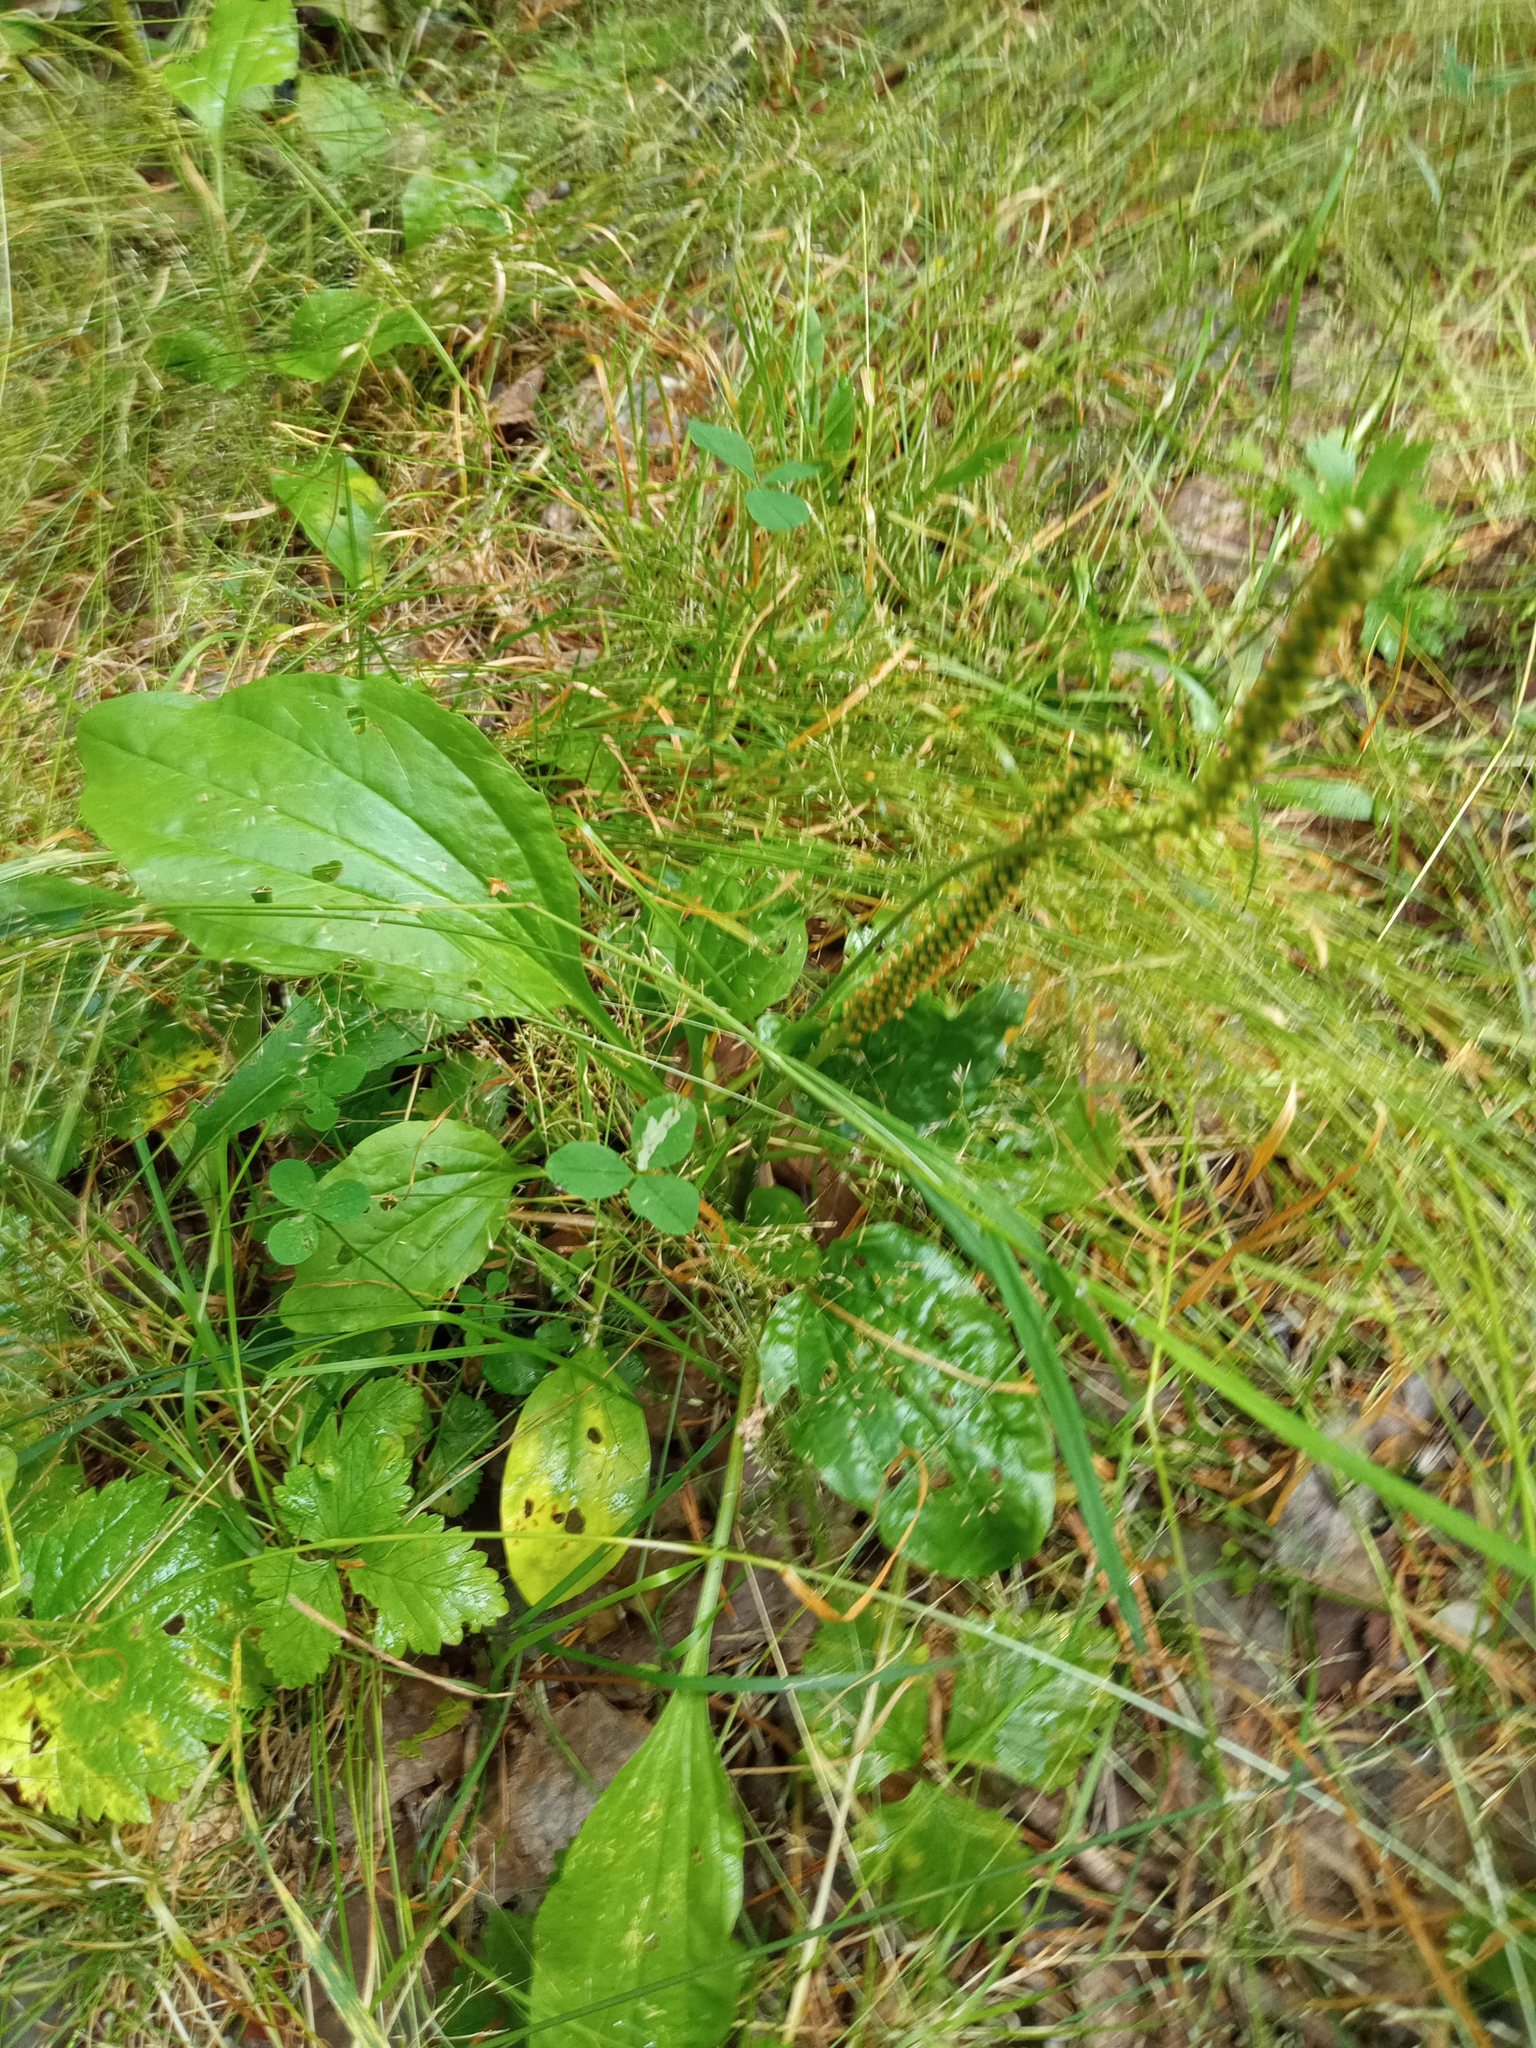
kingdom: Plantae
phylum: Tracheophyta
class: Magnoliopsida
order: Lamiales
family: Plantaginaceae
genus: Plantago
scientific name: Plantago major
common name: Common plantain
